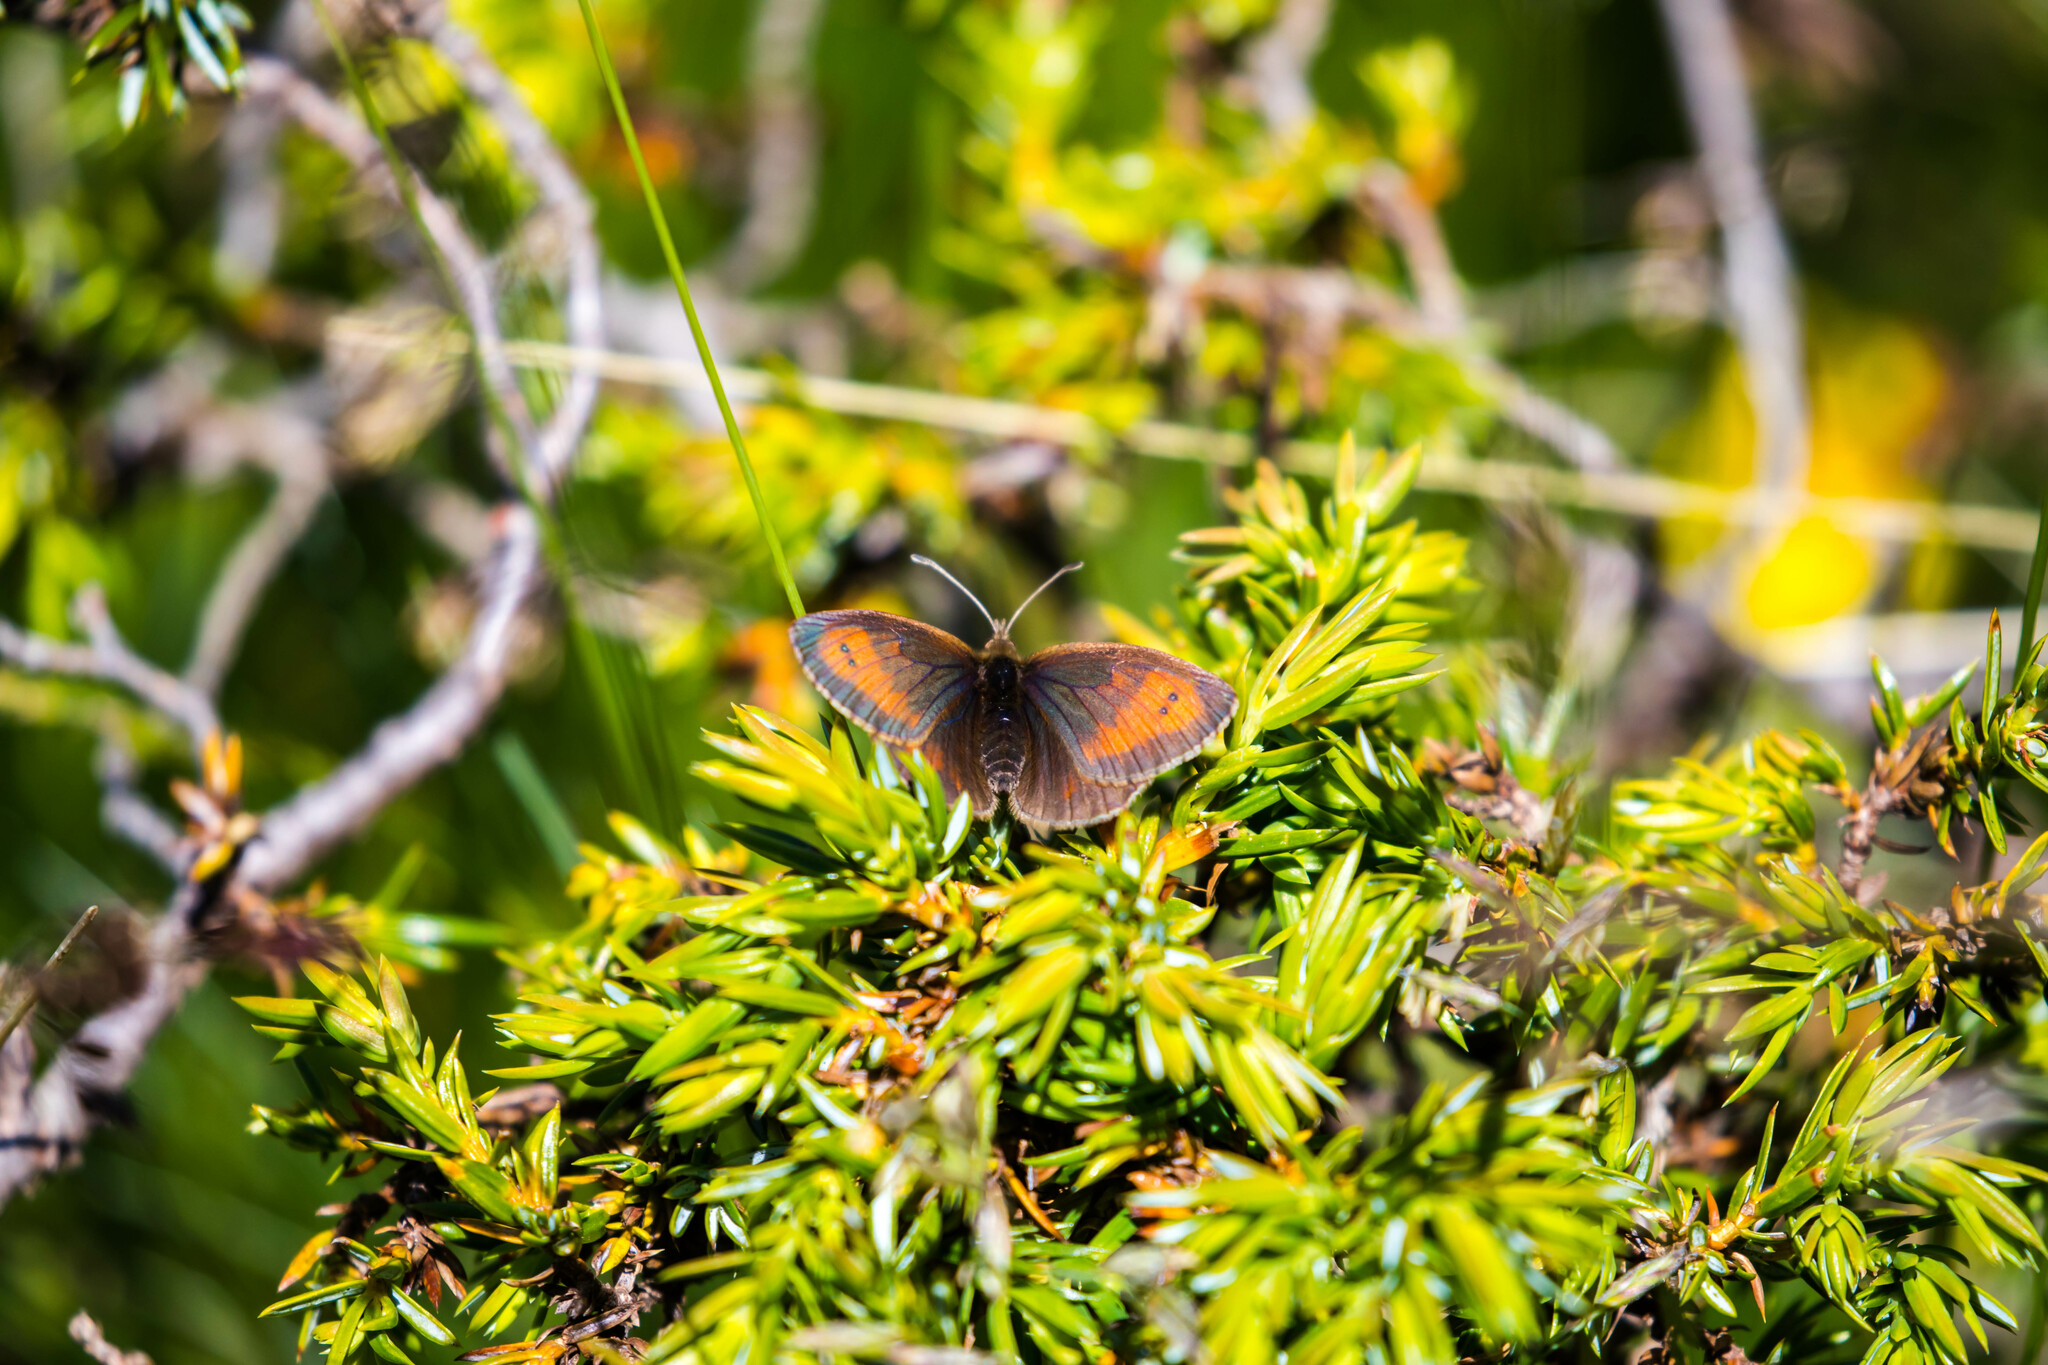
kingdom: Animalia
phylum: Arthropoda
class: Insecta
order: Lepidoptera
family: Nymphalidae
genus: Erebia
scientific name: Erebia mnestra
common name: Mnestra’s ringlet
